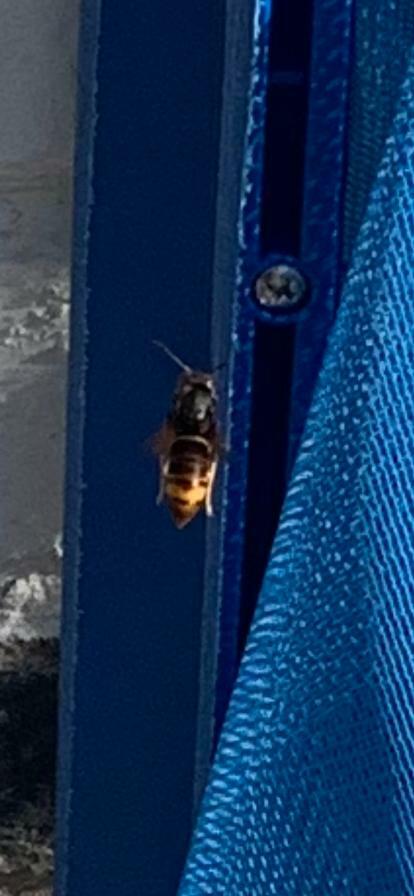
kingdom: Animalia
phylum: Arthropoda
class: Insecta
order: Hymenoptera
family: Vespidae
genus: Vespa
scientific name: Vespa velutina
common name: Asian hornet
